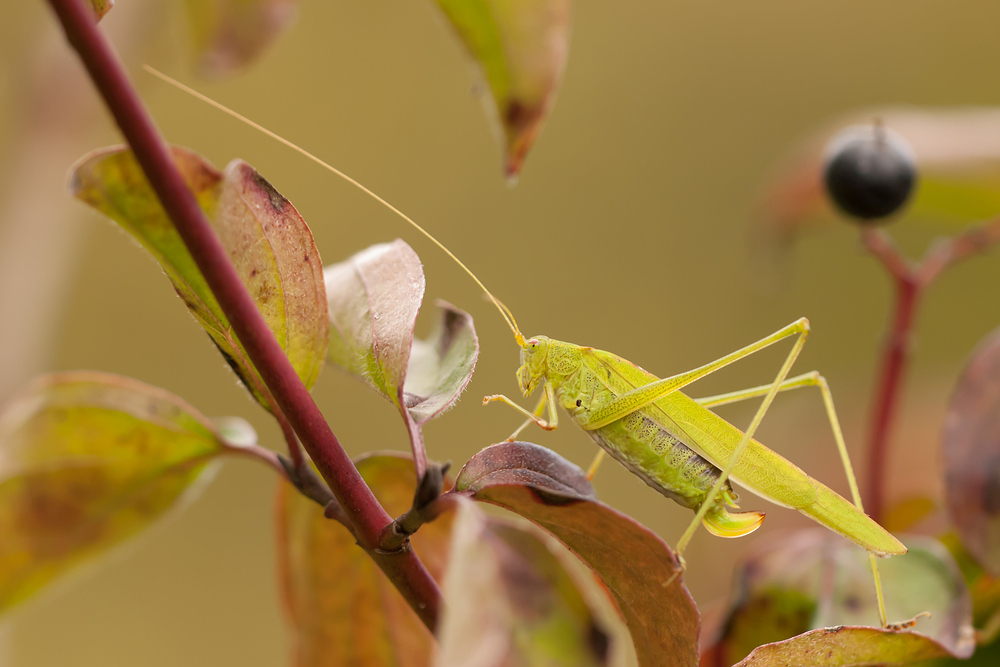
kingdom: Animalia
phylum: Arthropoda
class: Insecta
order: Orthoptera
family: Tettigoniidae
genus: Phaneroptera
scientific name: Phaneroptera falcata
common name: Sickle-bearing bush-cricket
